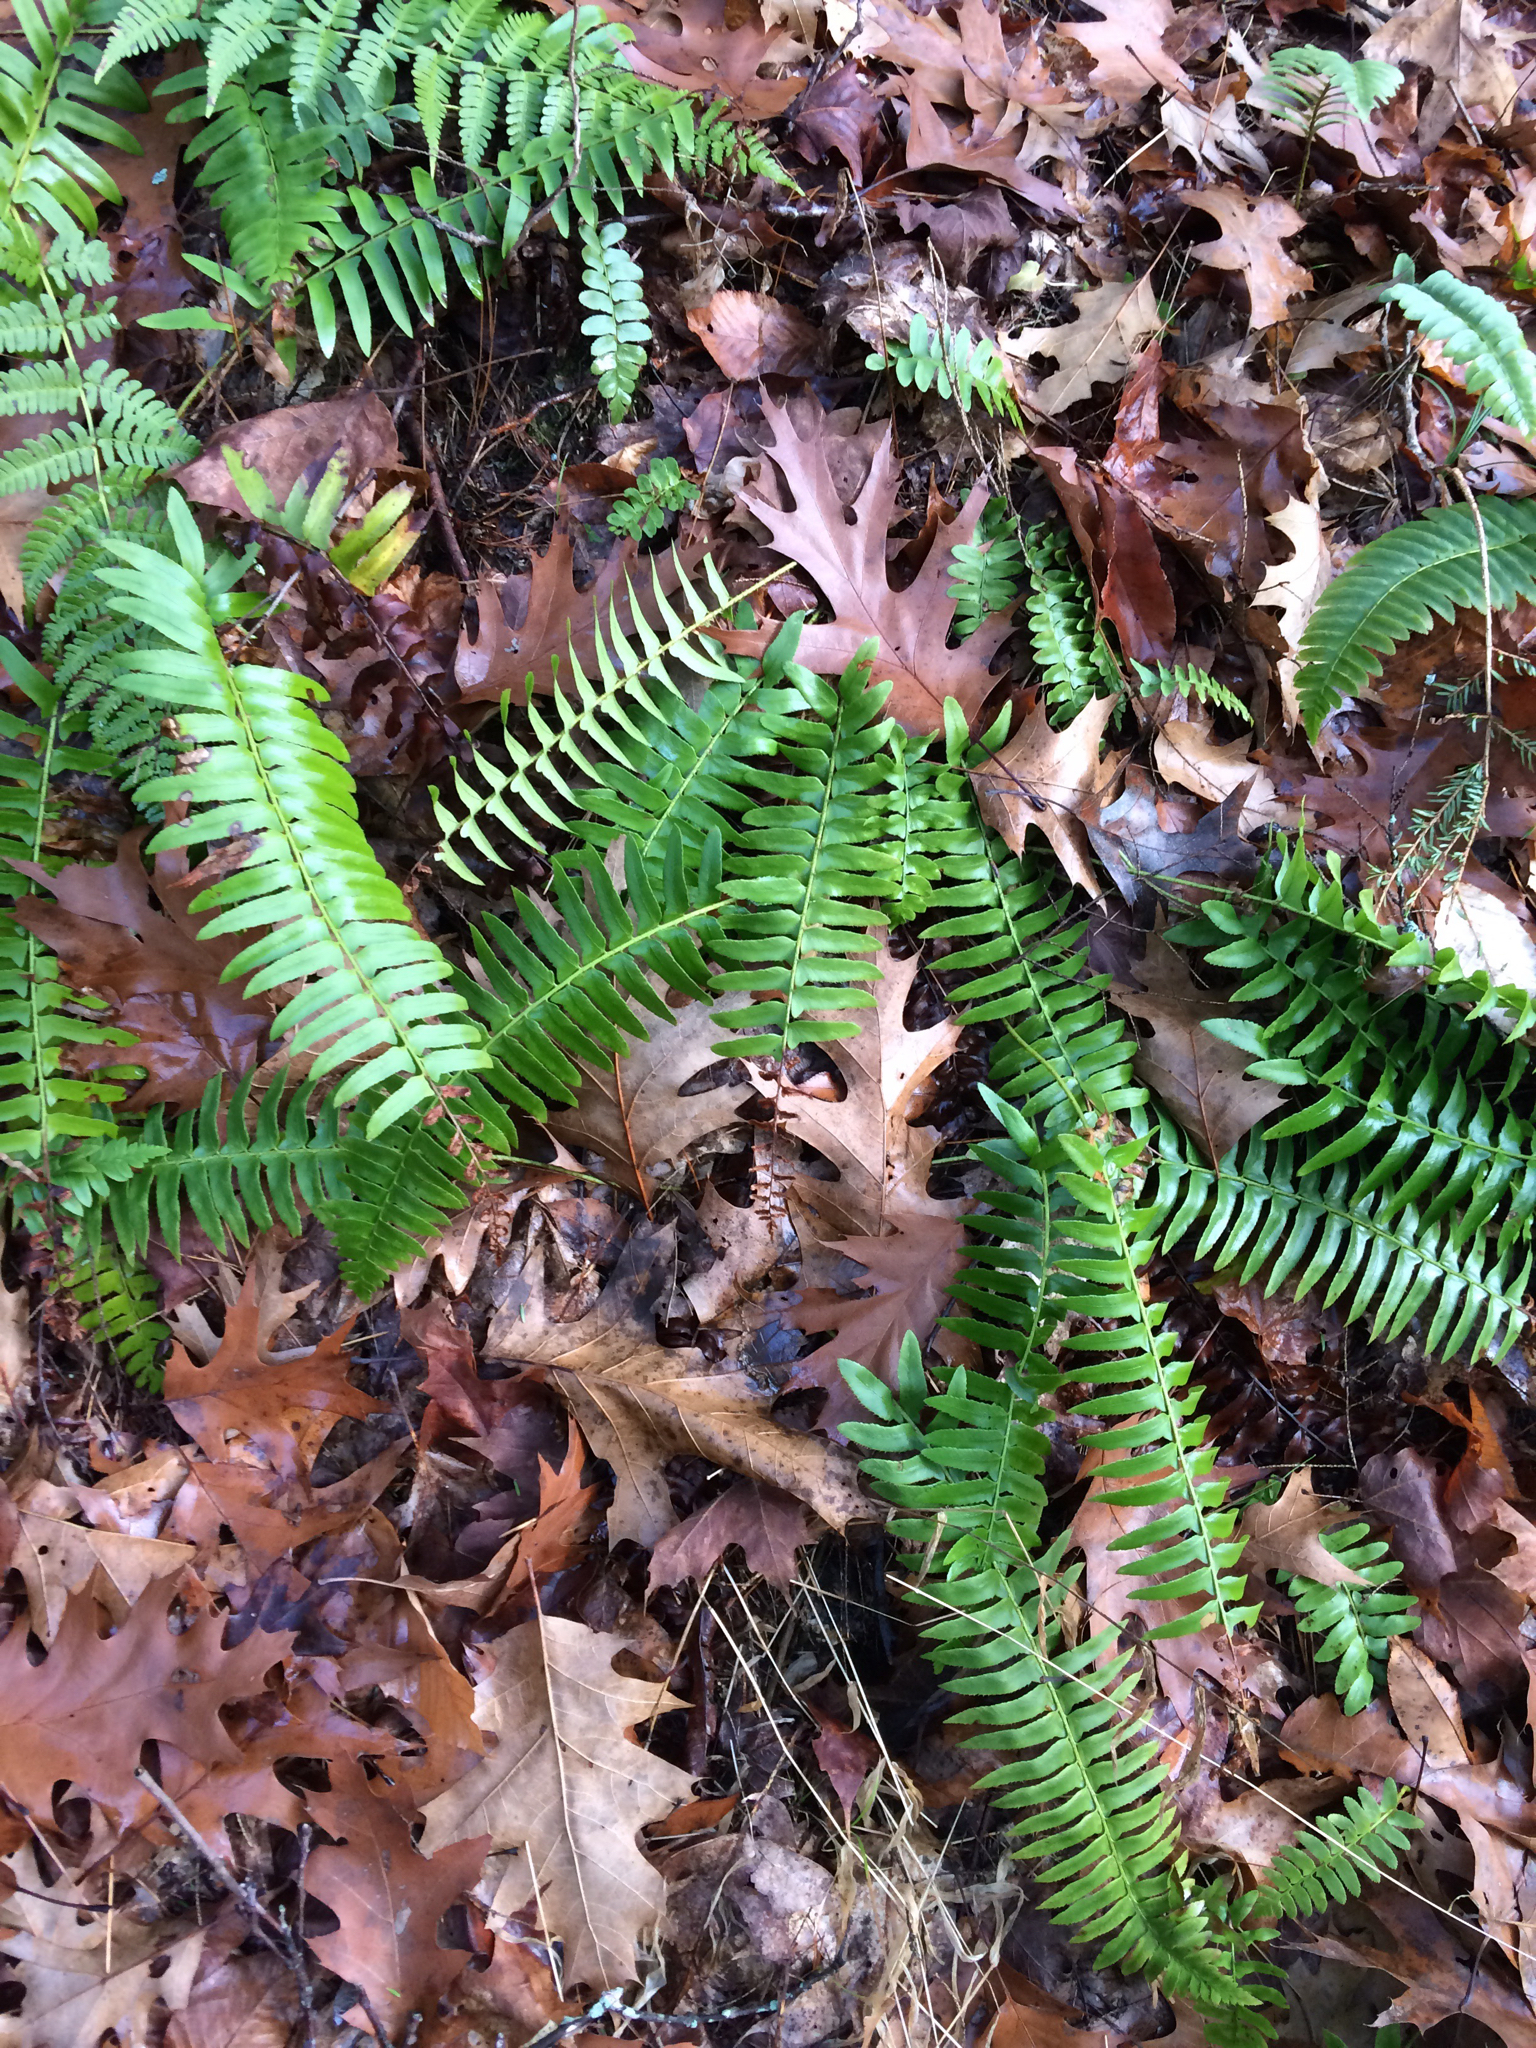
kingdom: Plantae
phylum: Tracheophyta
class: Polypodiopsida
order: Polypodiales
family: Dryopteridaceae
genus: Polystichum
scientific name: Polystichum acrostichoides
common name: Christmas fern
